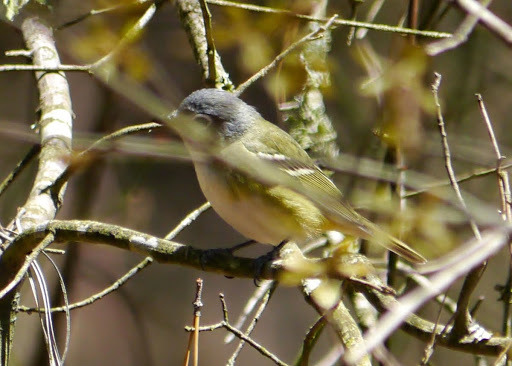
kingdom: Animalia
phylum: Chordata
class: Aves
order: Passeriformes
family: Vireonidae
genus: Vireo
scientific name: Vireo solitarius
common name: Blue-headed vireo
